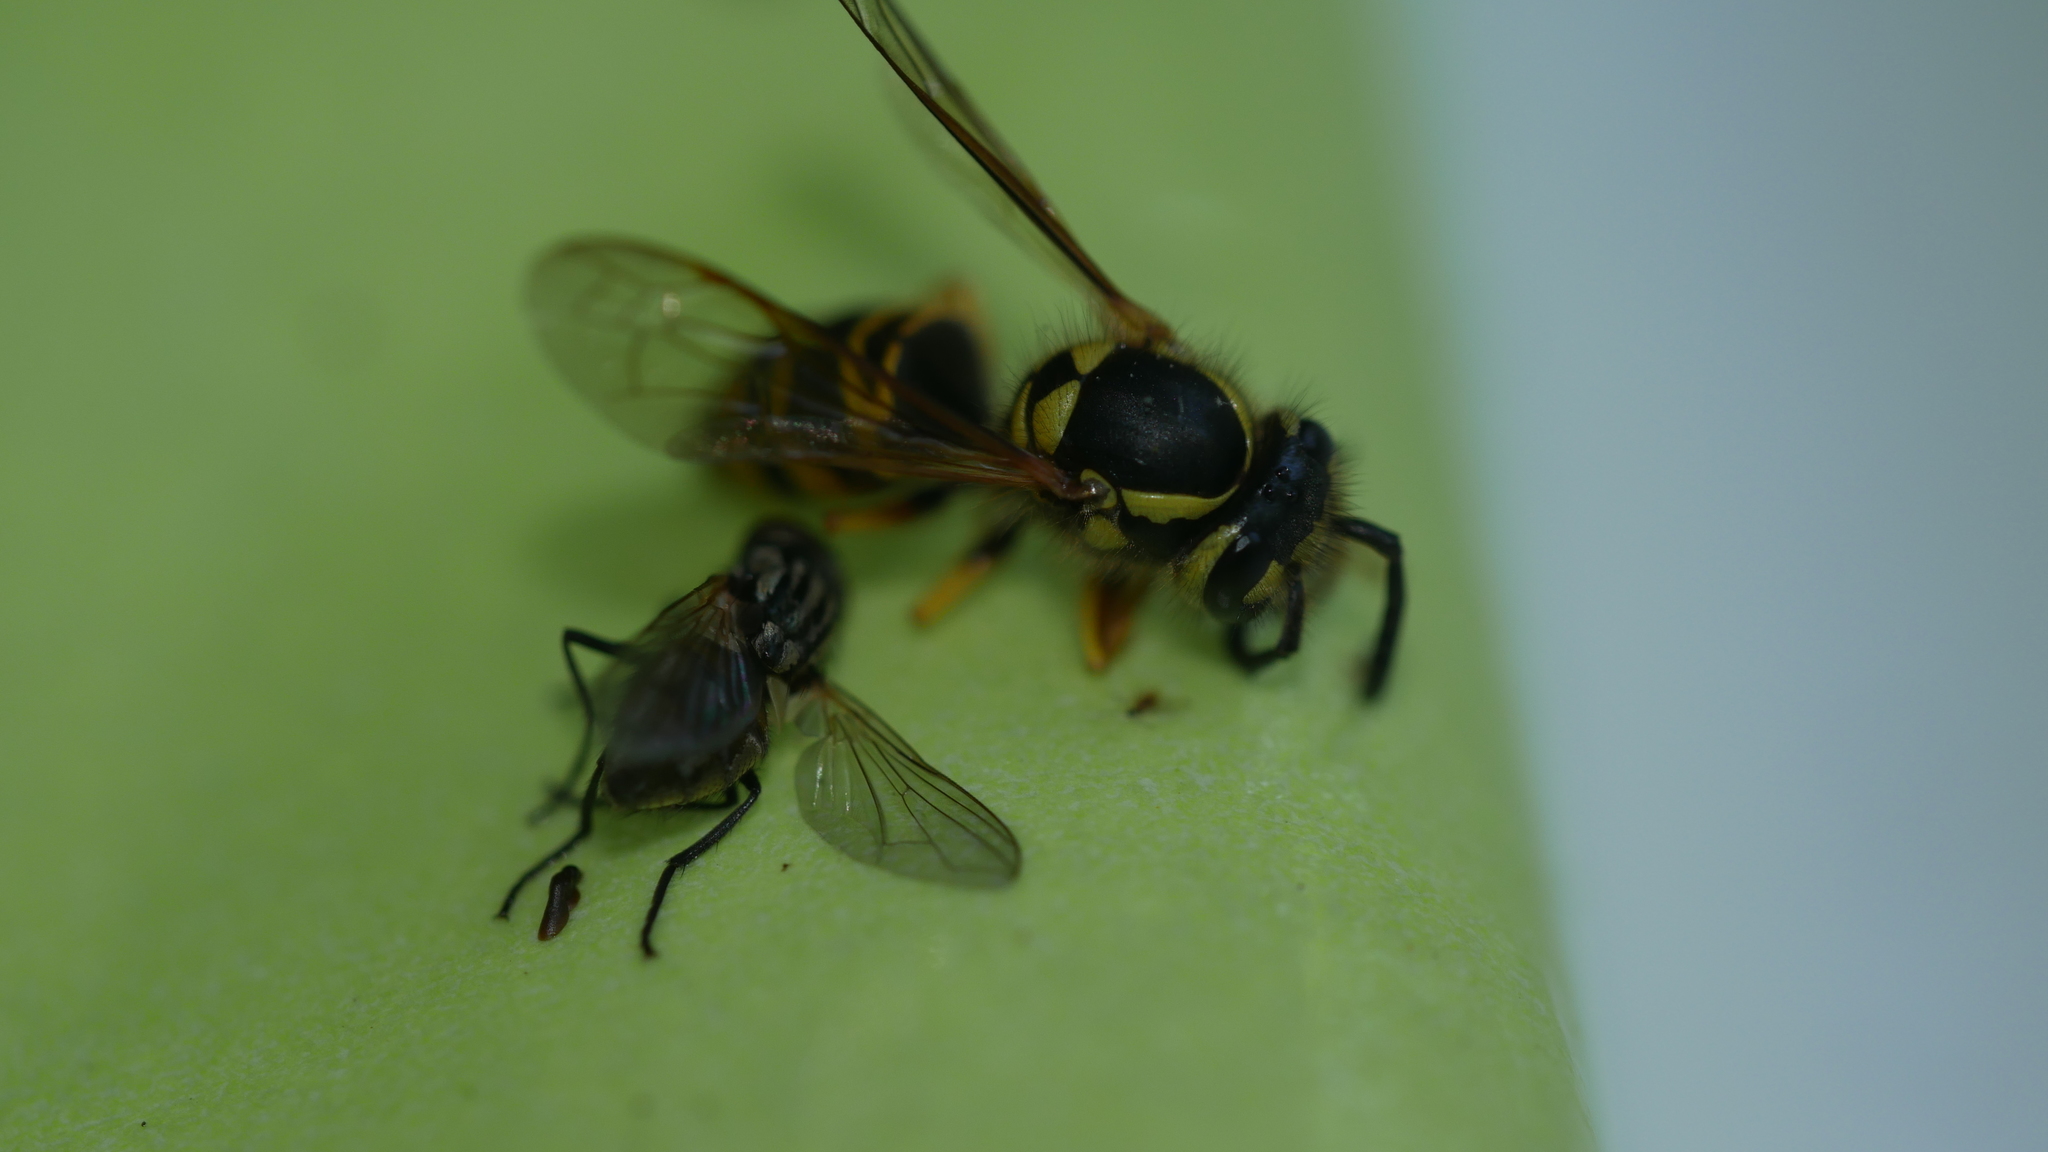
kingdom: Animalia
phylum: Arthropoda
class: Insecta
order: Hymenoptera
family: Vespidae
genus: Vespula
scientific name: Vespula maculifrons
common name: Eastern yellowjacket
